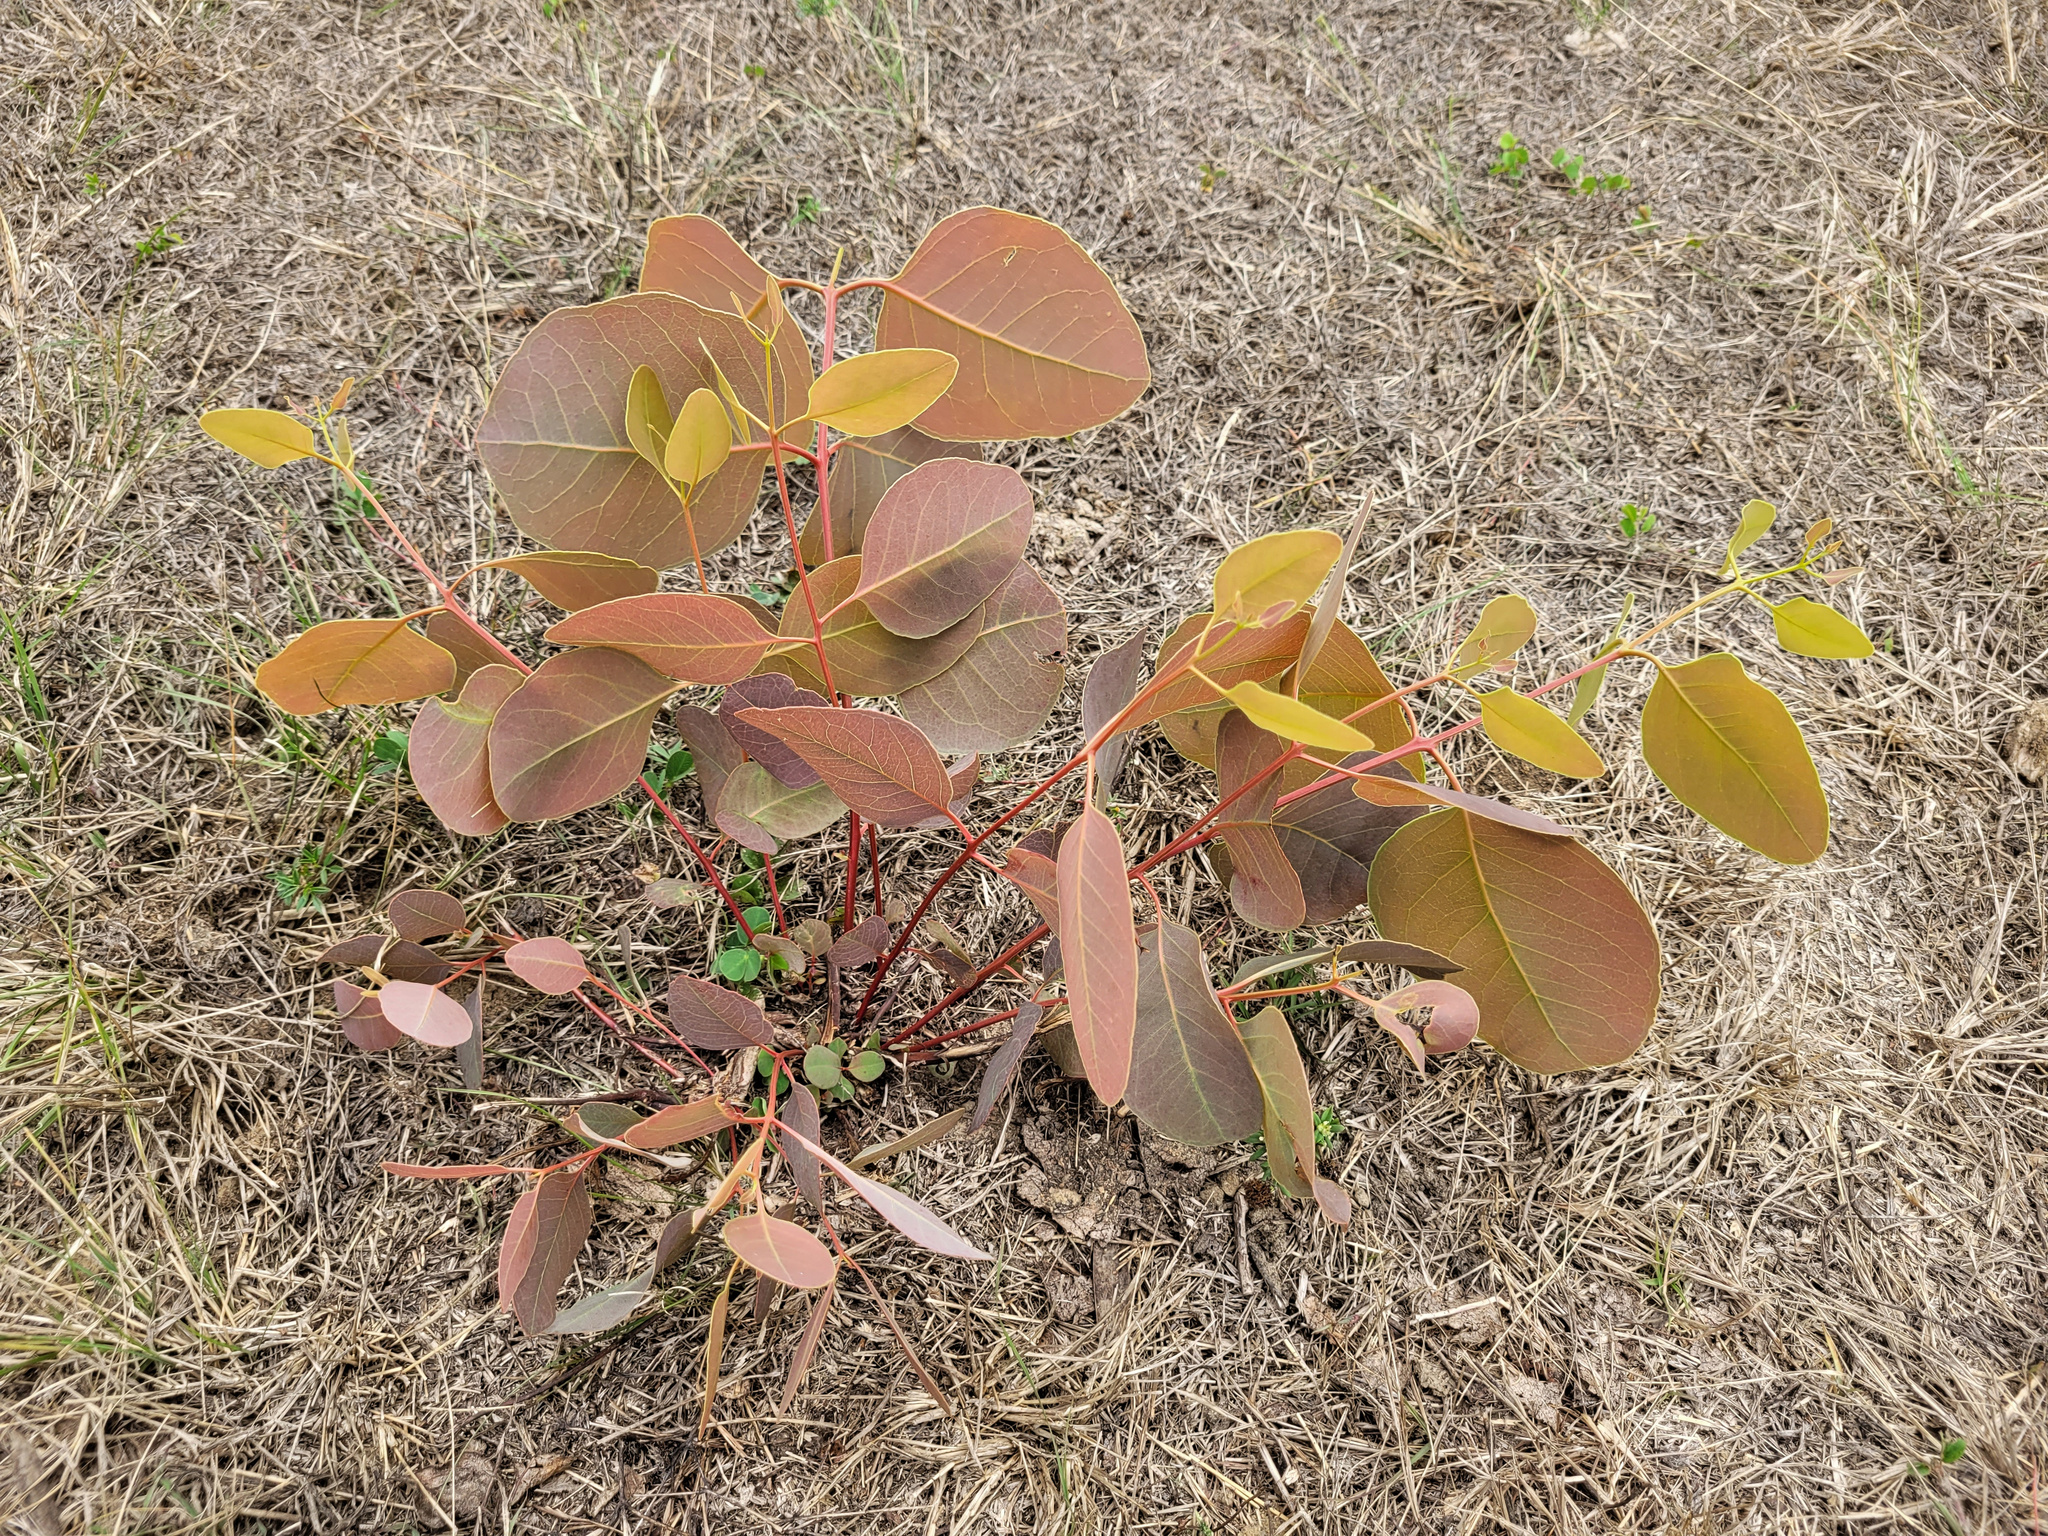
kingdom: Plantae
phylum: Tracheophyta
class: Magnoliopsida
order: Myrtales
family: Myrtaceae
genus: Eucalyptus
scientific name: Eucalyptus platyphylla
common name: Poplar-gum
